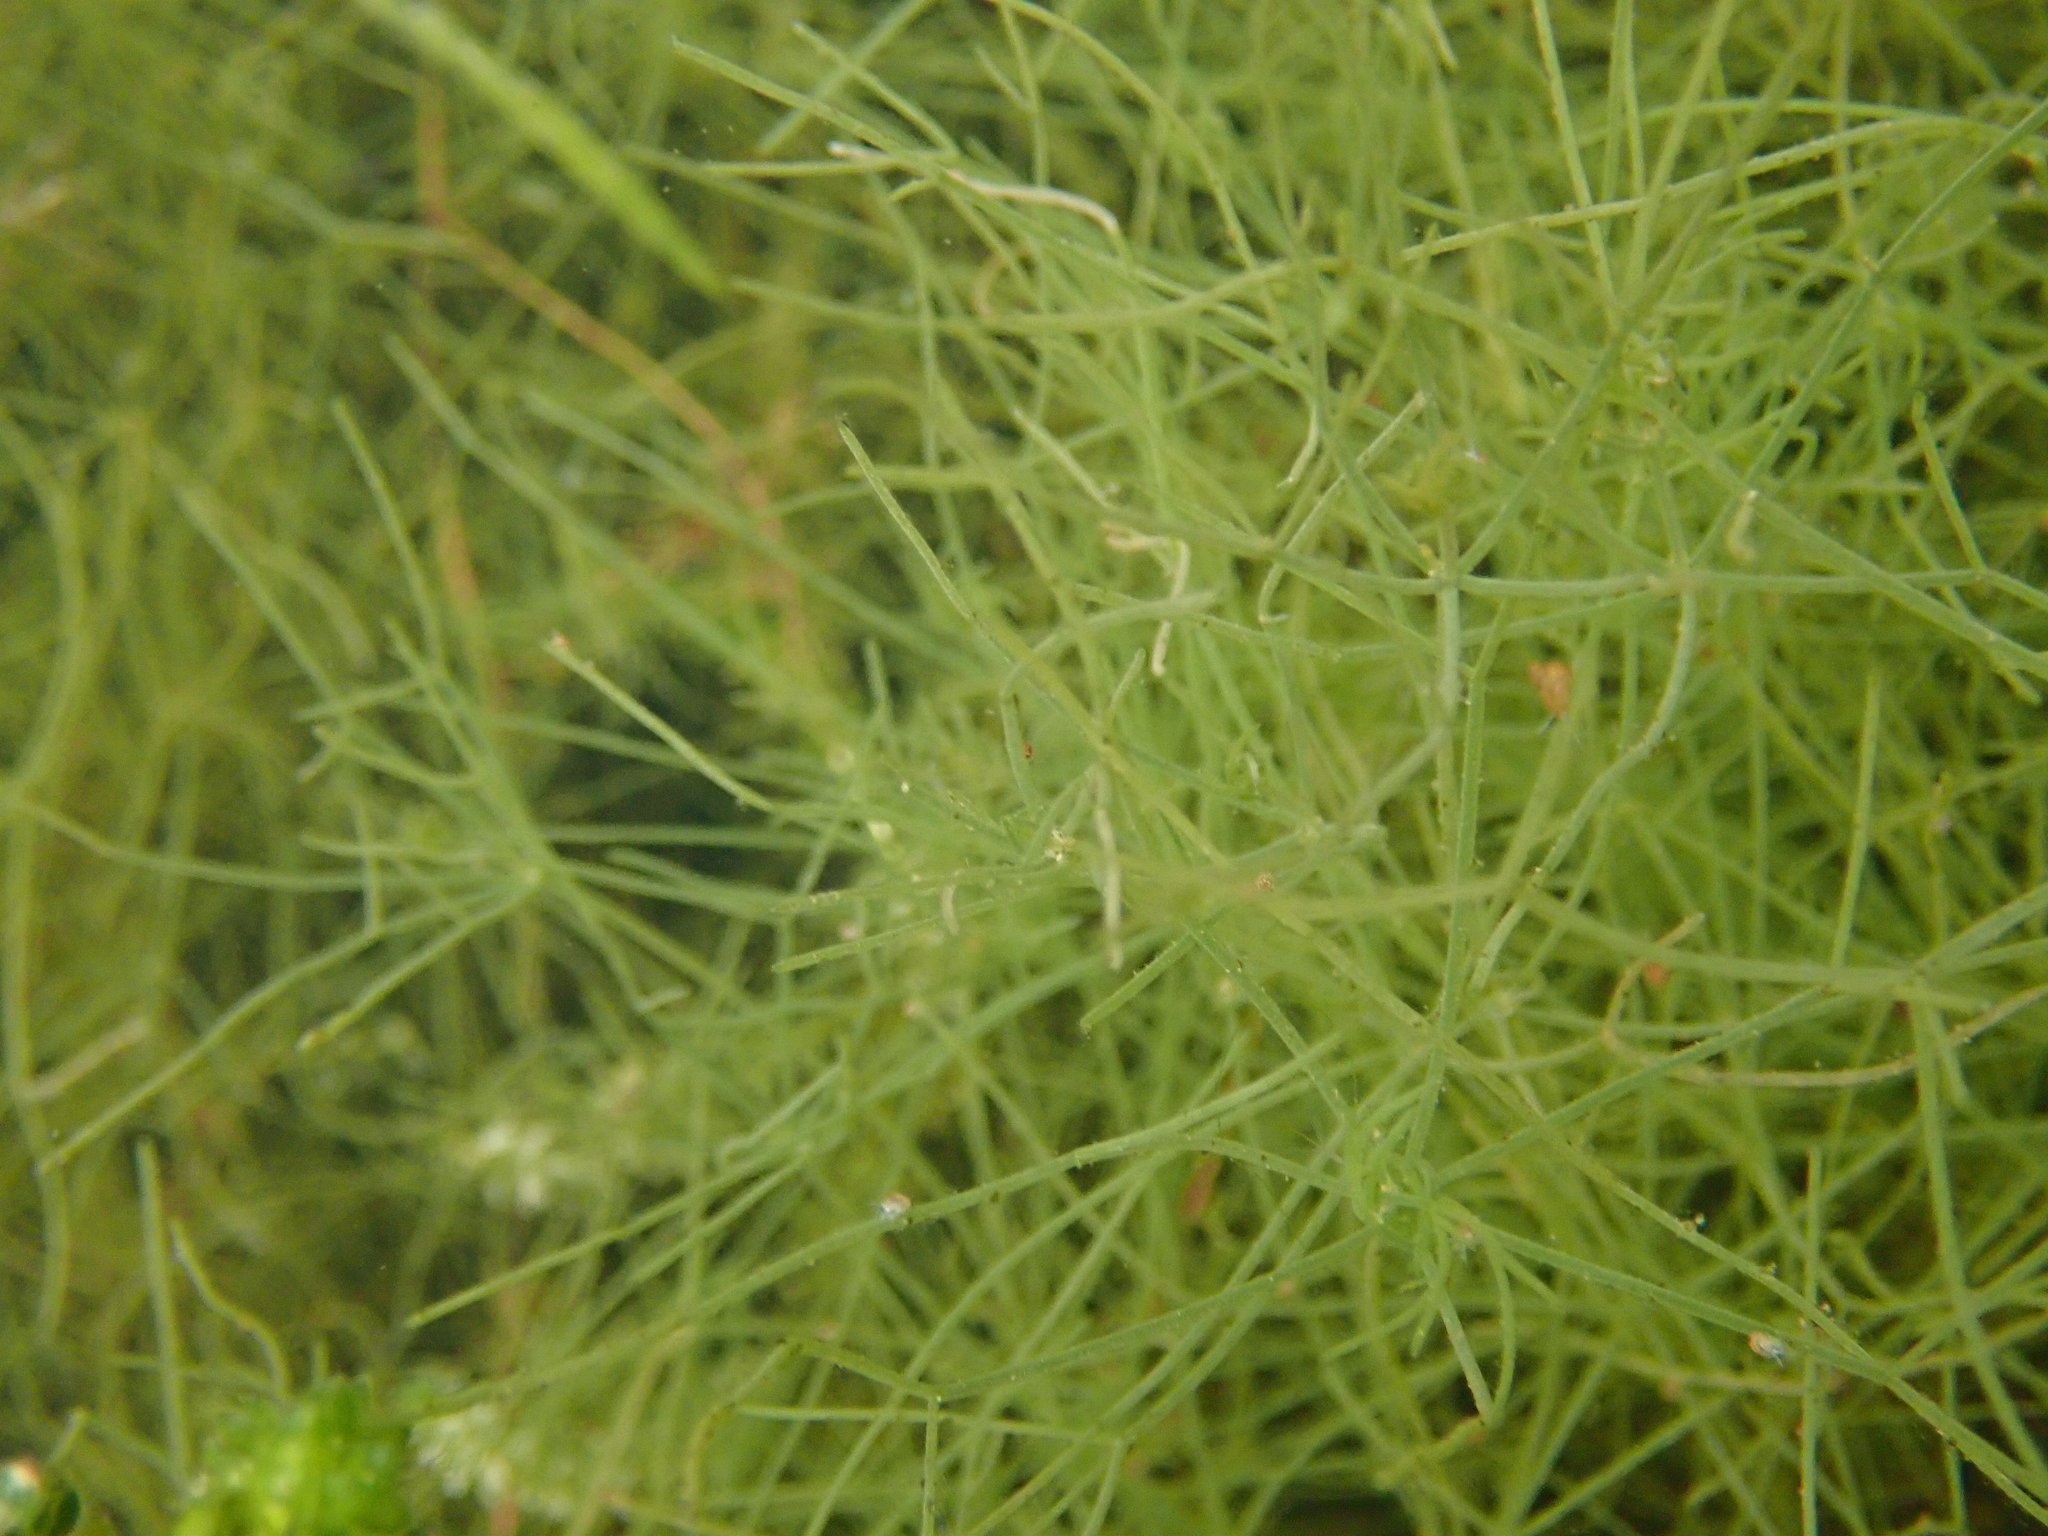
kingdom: Plantae
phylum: Charophyta
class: Charophyceae
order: Charales
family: Characeae
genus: Nitellopsis
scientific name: Nitellopsis obtusa
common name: Starry stonewort
